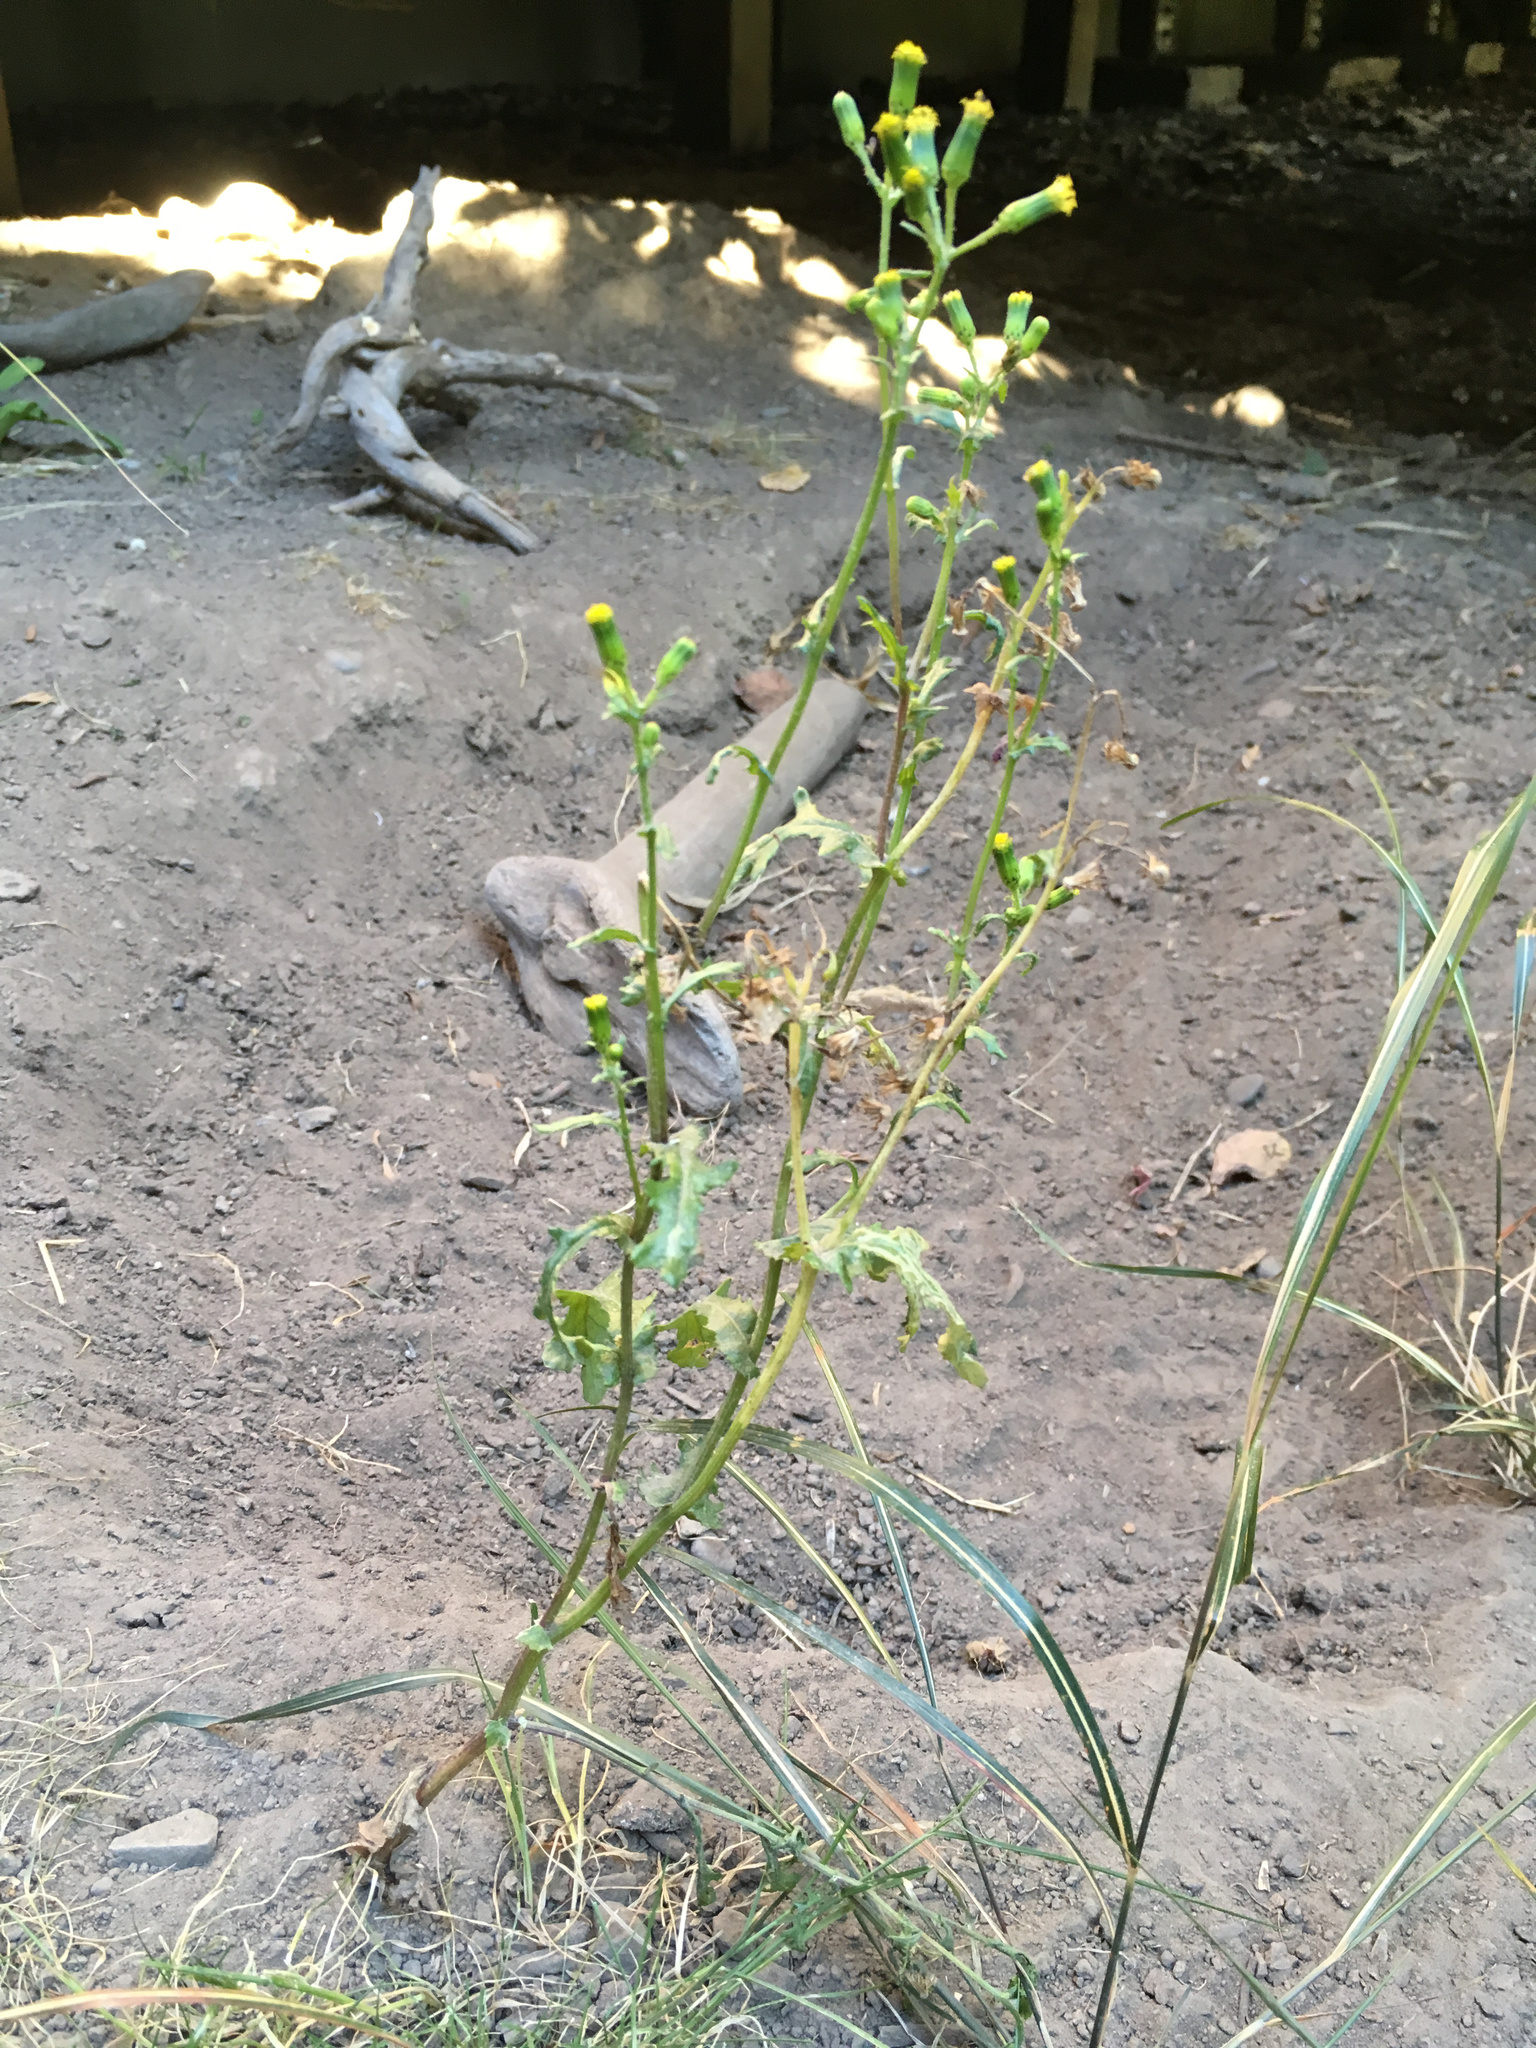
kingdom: Plantae
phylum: Tracheophyta
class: Magnoliopsida
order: Asterales
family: Asteraceae
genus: Senecio
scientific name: Senecio vulgaris
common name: Old-man-in-the-spring
